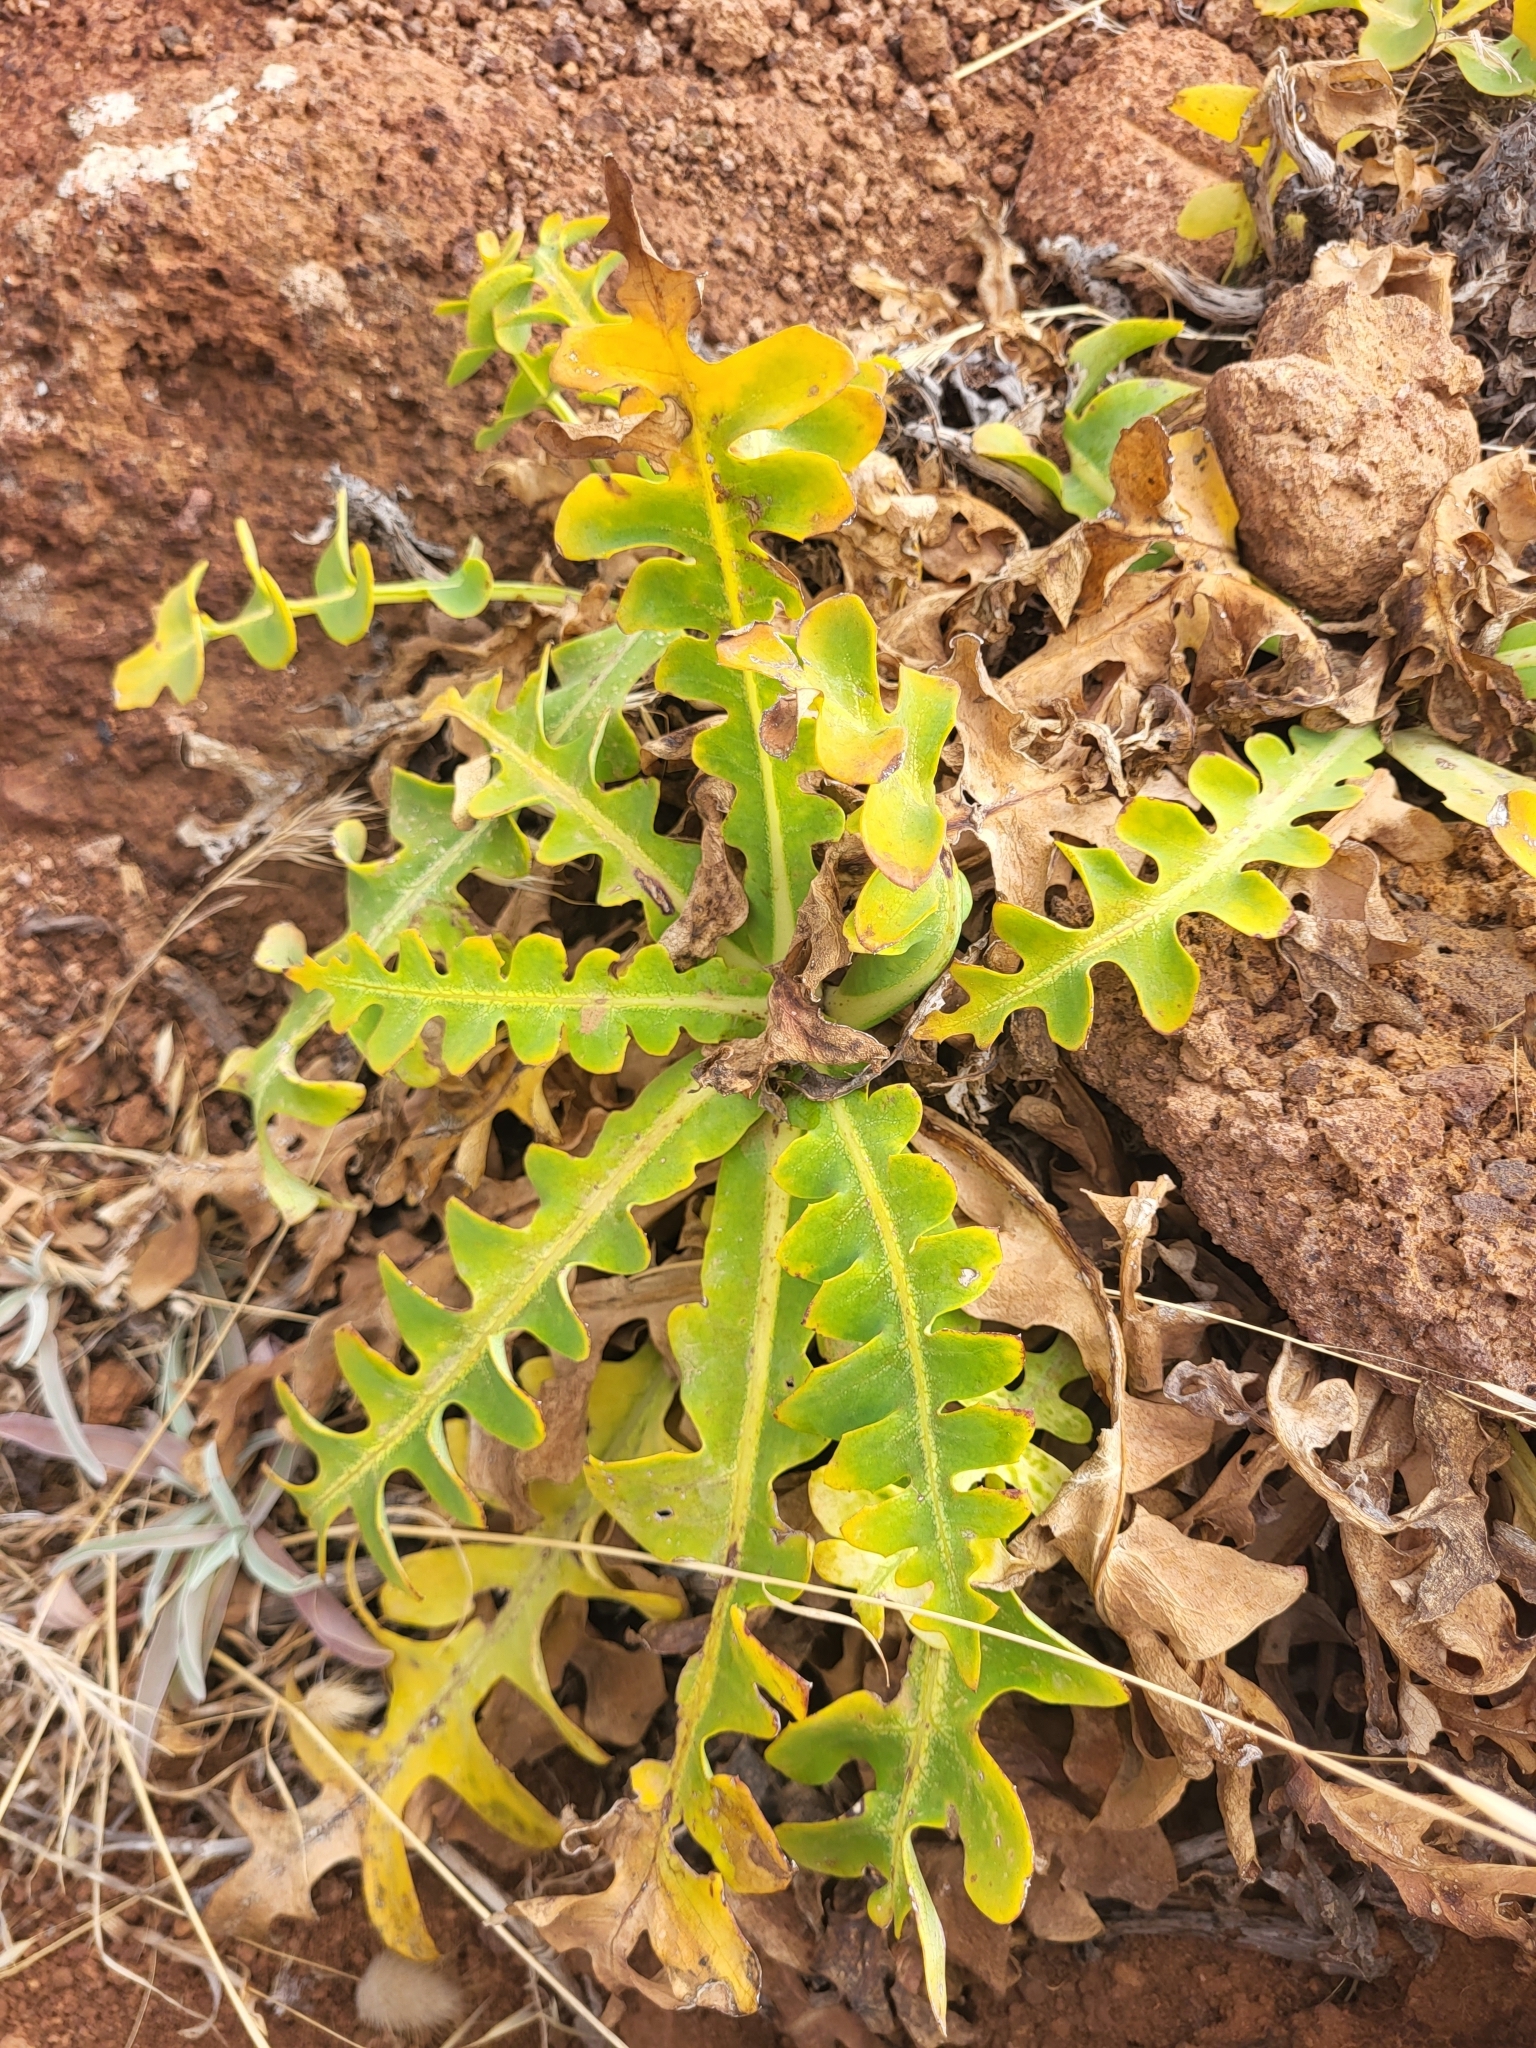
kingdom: Plantae
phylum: Tracheophyta
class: Magnoliopsida
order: Asterales
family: Asteraceae
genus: Sonchus
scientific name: Sonchus latifolius
